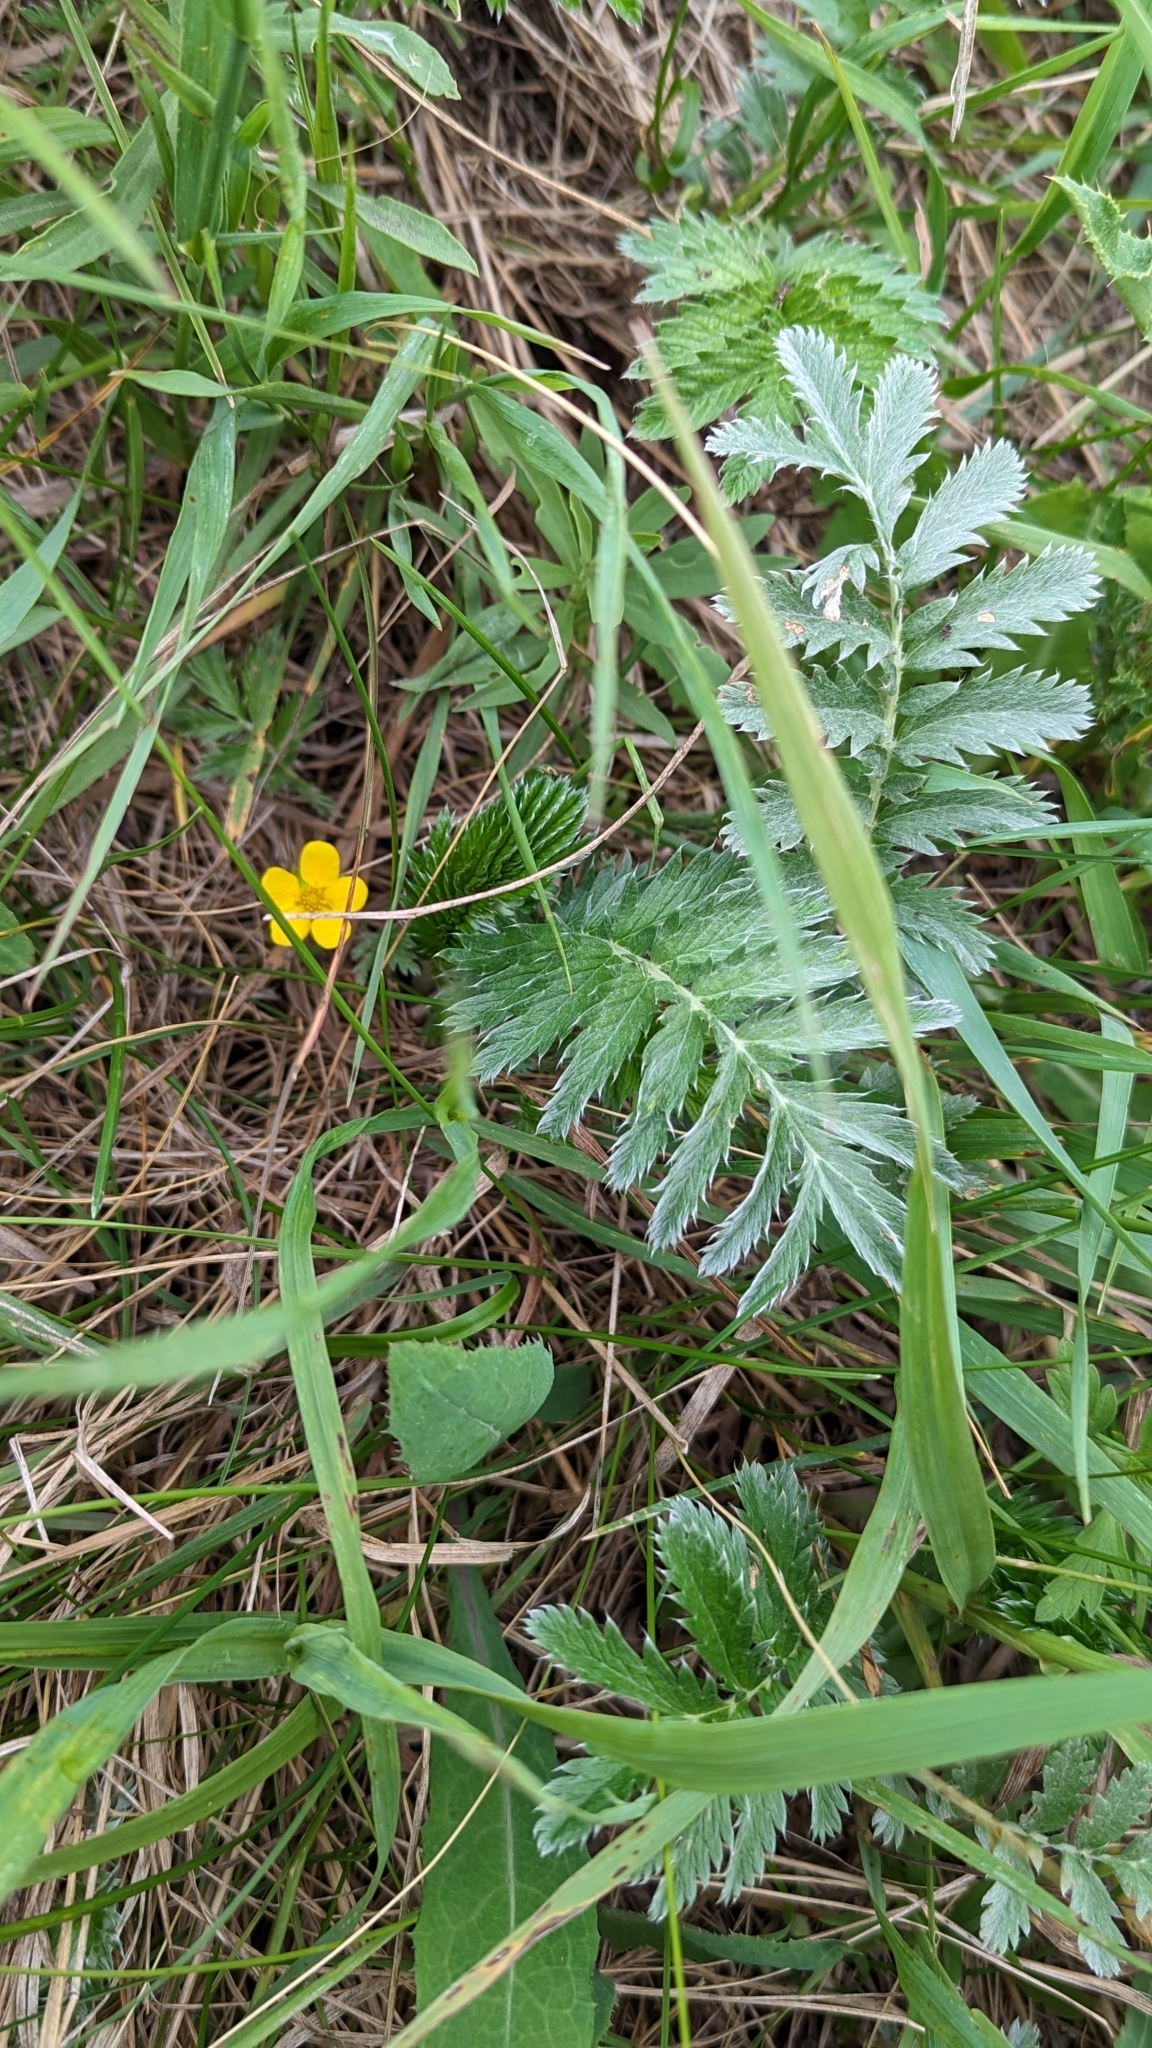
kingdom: Plantae
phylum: Tracheophyta
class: Magnoliopsida
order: Rosales
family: Rosaceae
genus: Argentina
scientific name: Argentina anserina
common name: Common silverweed
